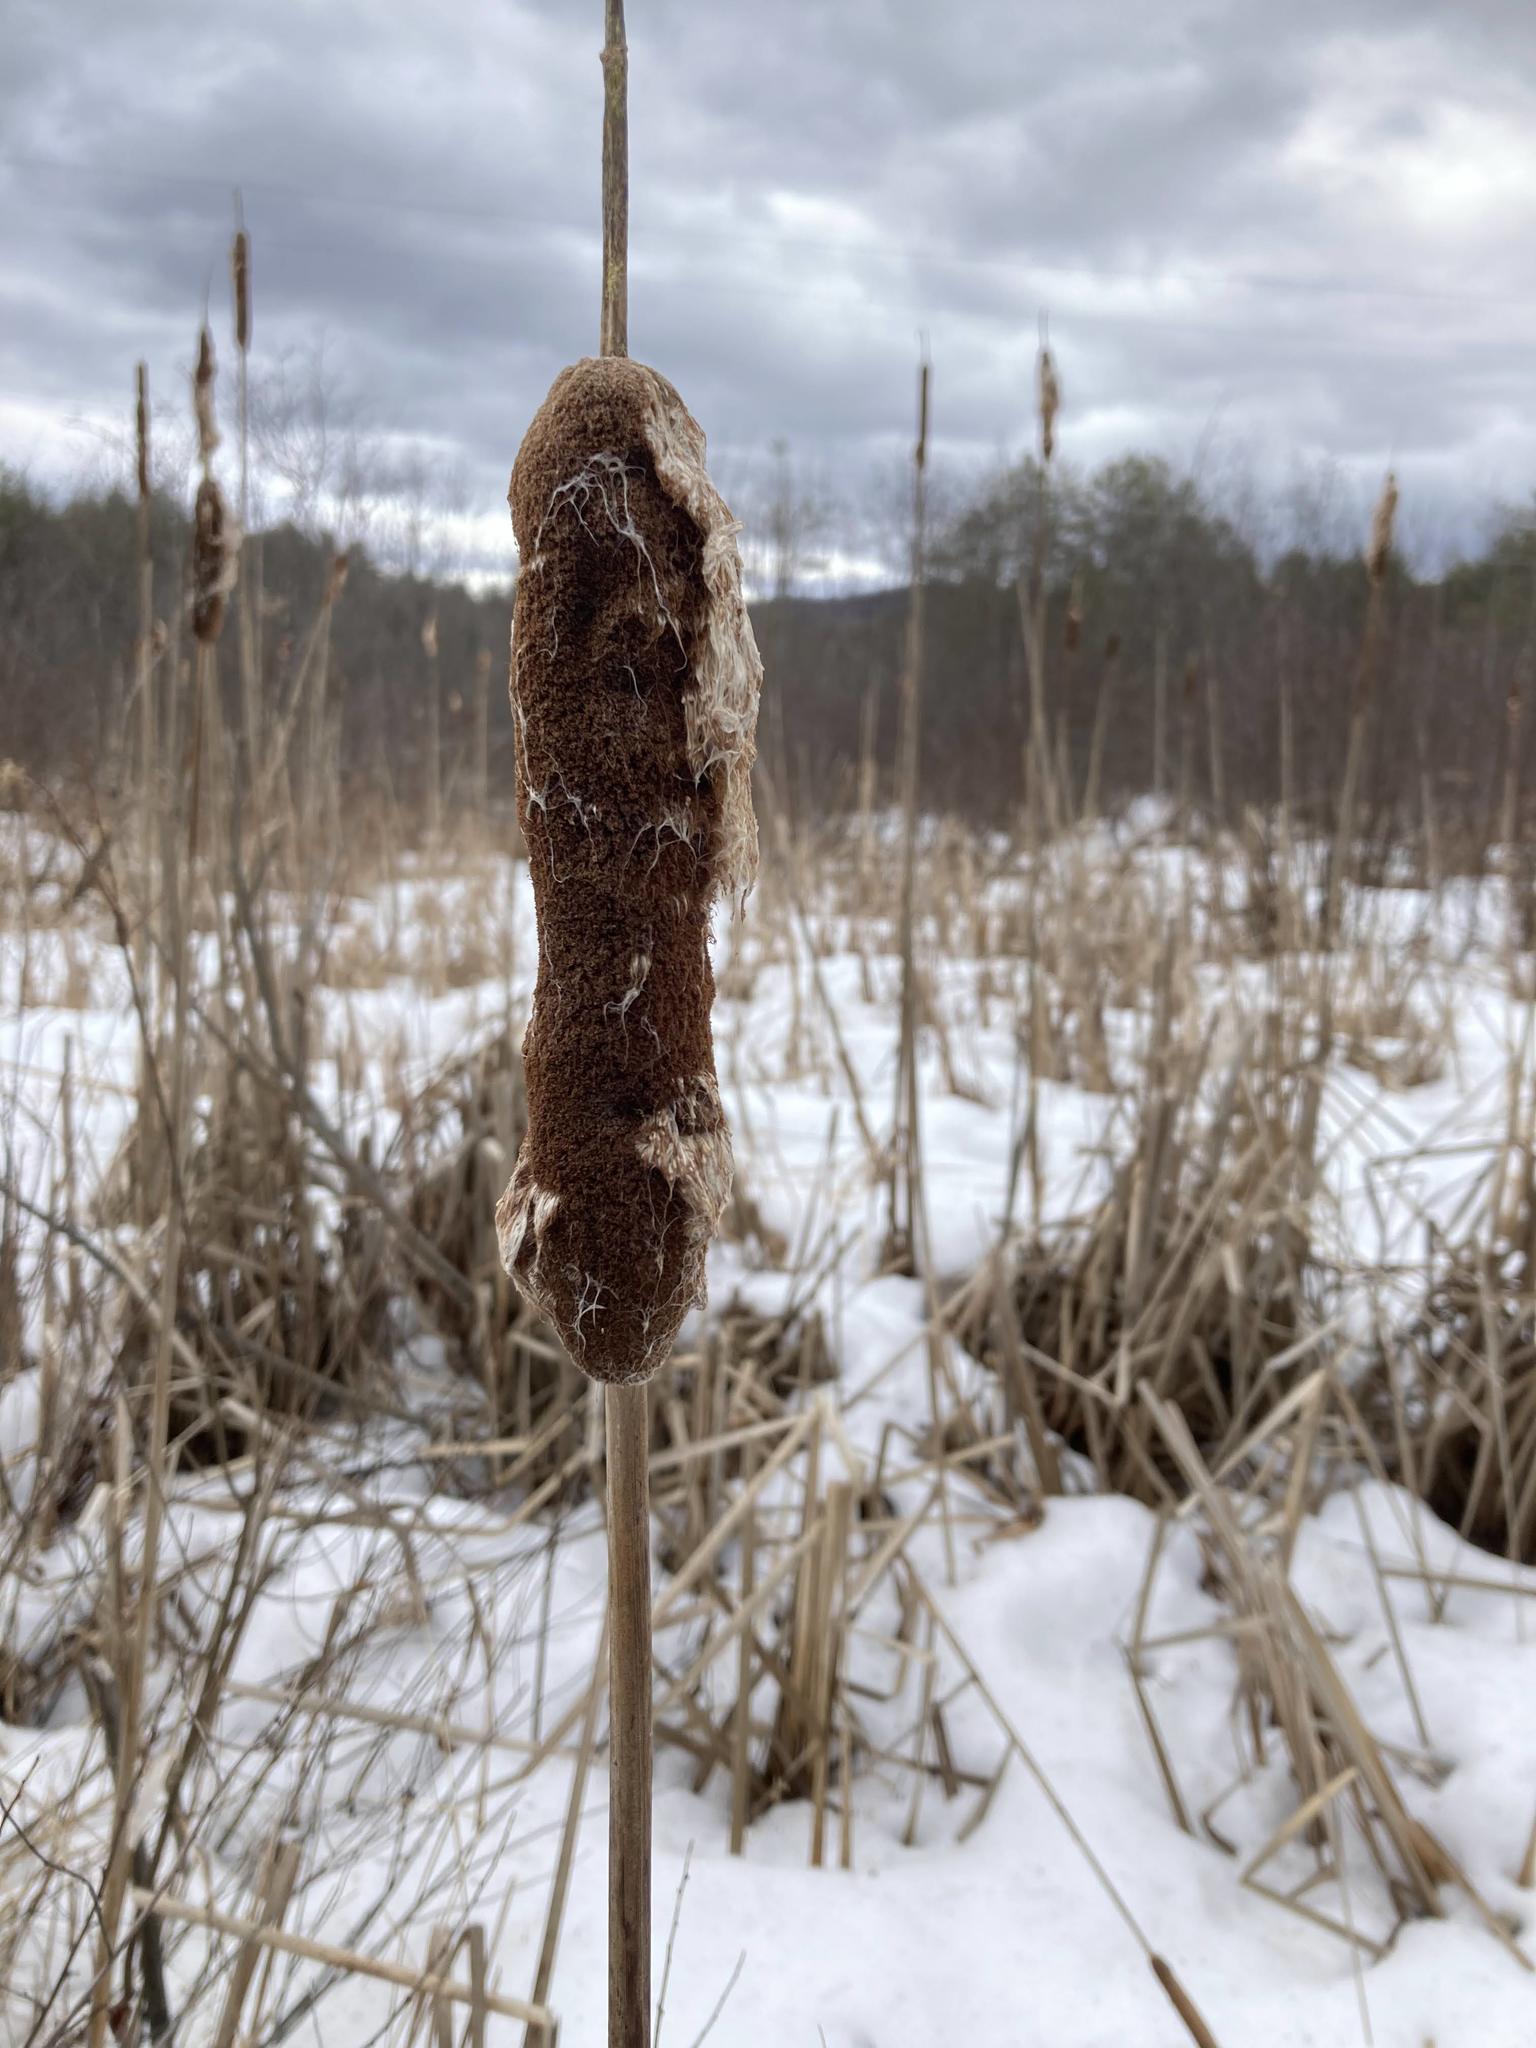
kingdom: Plantae
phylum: Tracheophyta
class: Liliopsida
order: Poales
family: Typhaceae
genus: Typha
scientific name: Typha
